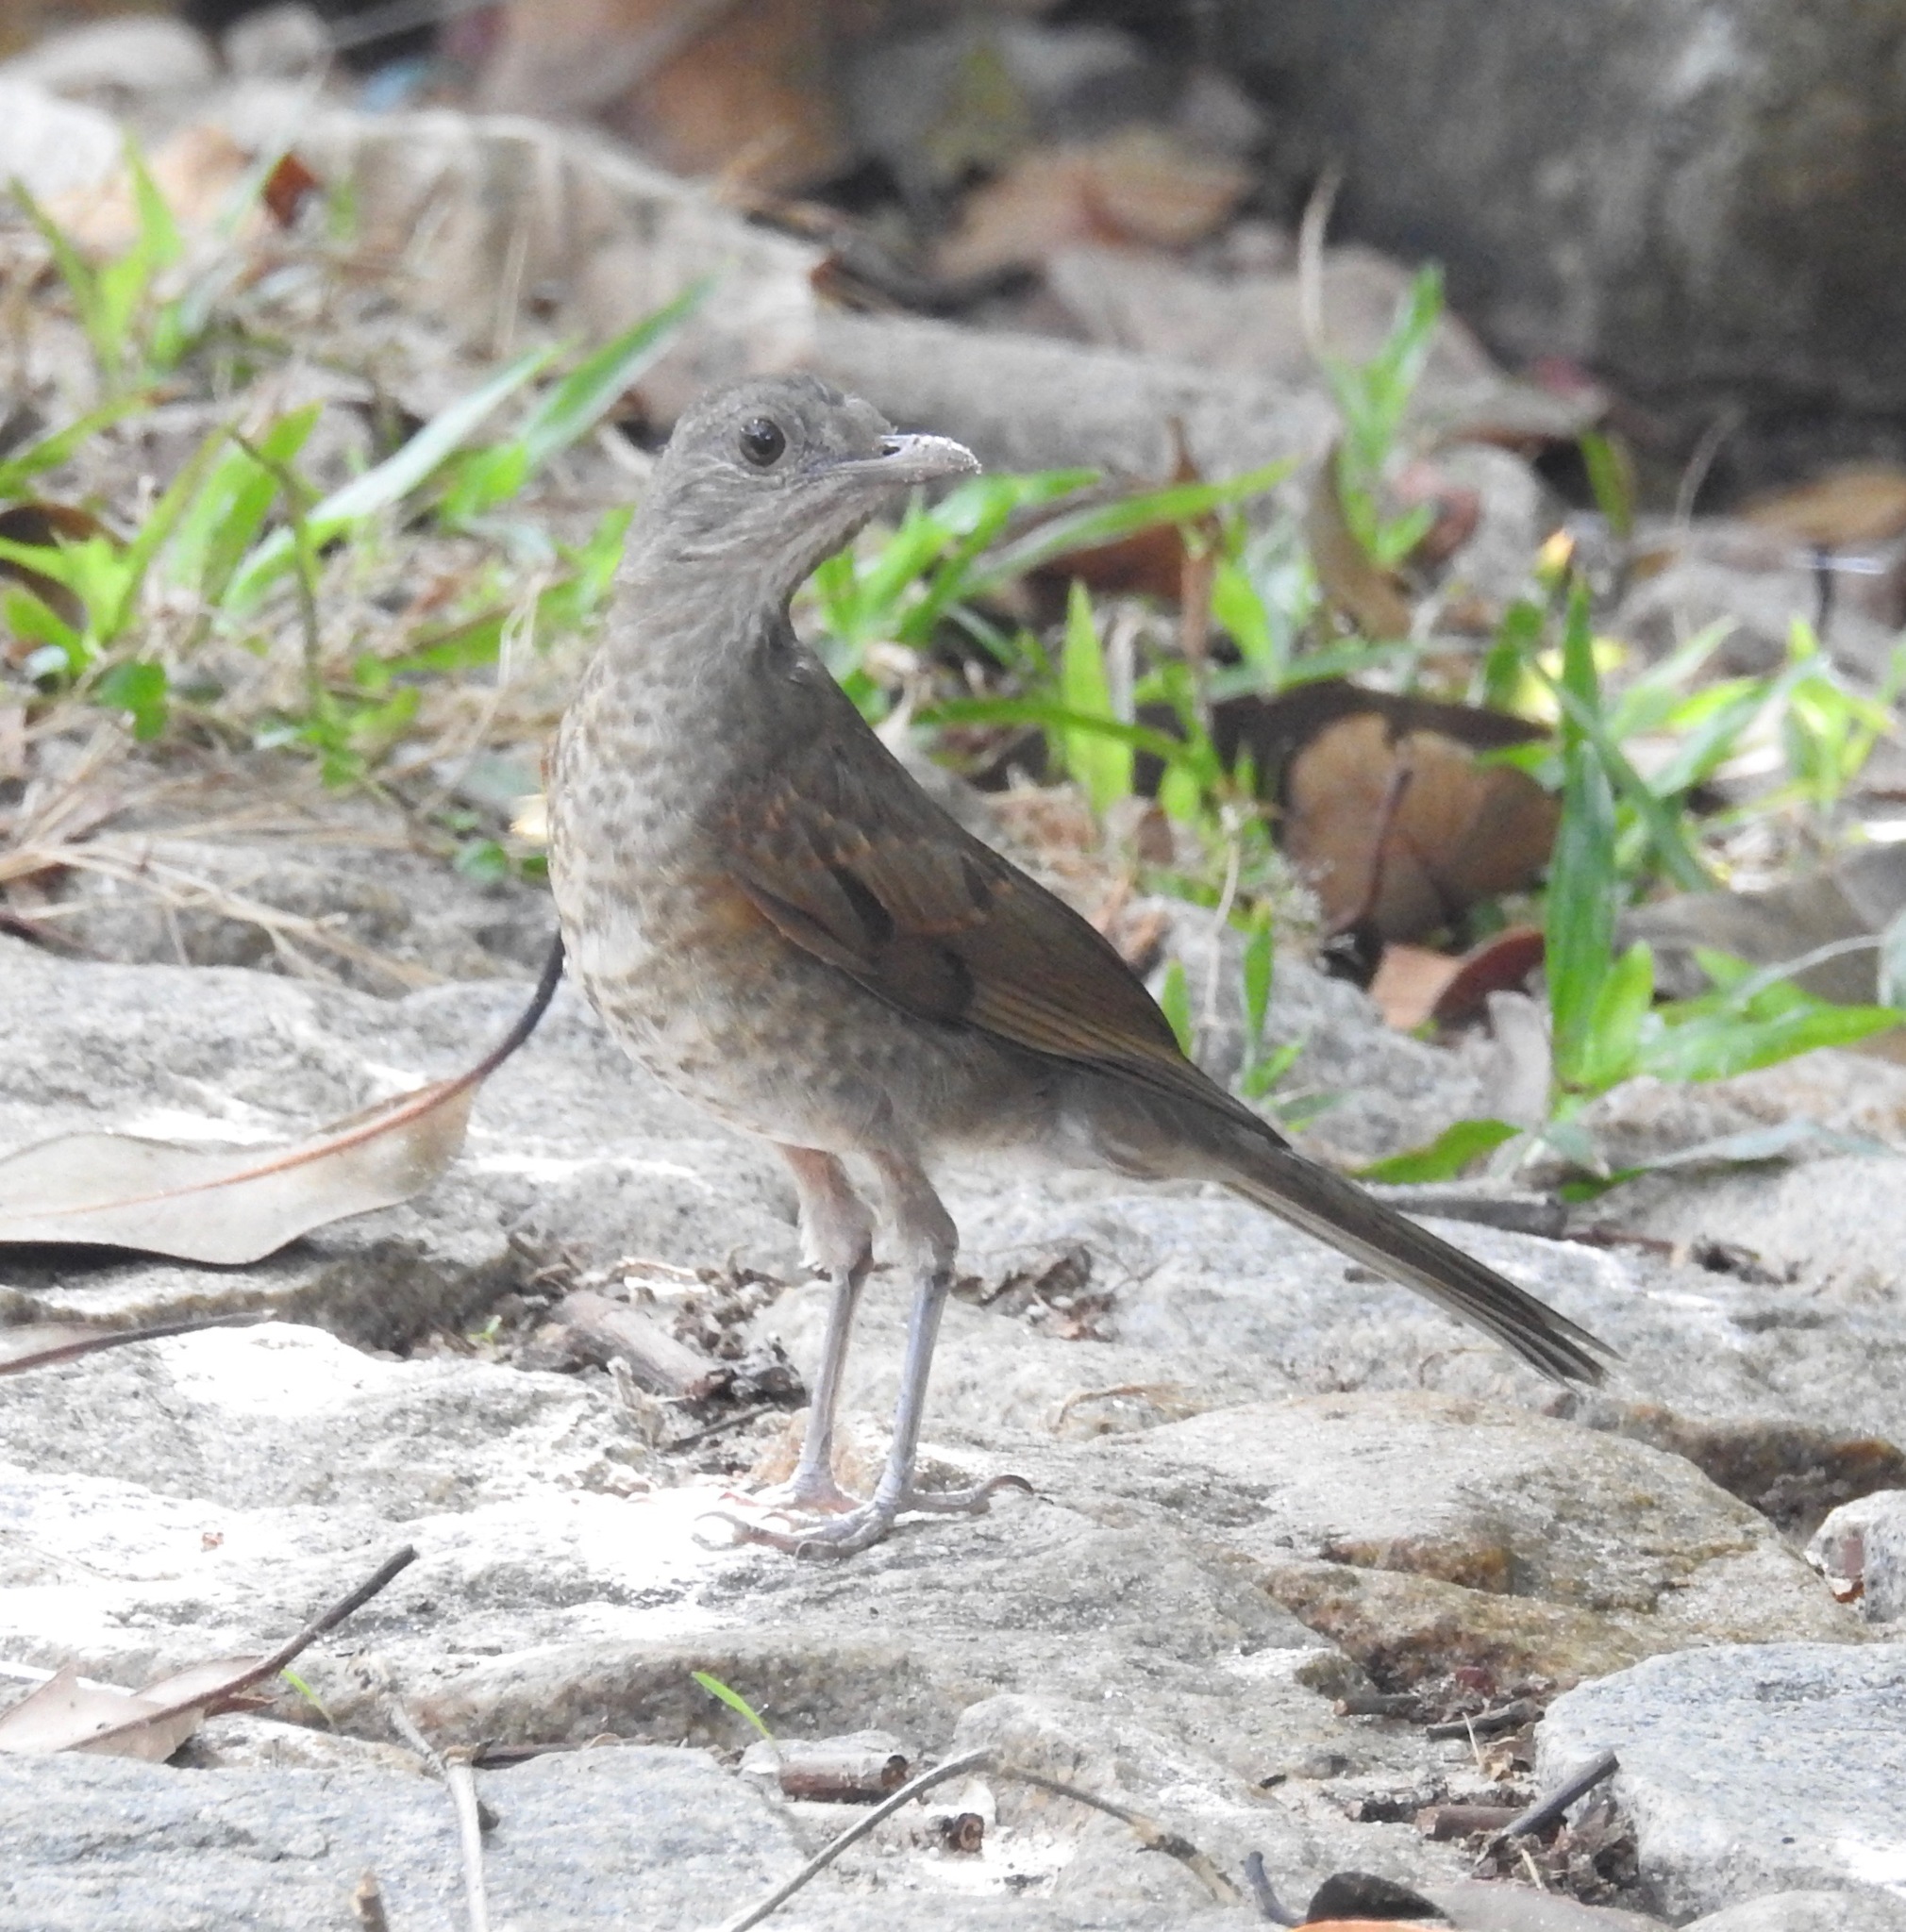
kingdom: Animalia
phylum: Chordata
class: Aves
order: Passeriformes
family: Turdidae
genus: Turdus
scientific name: Turdus leucomelas
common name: Pale-breasted thrush
